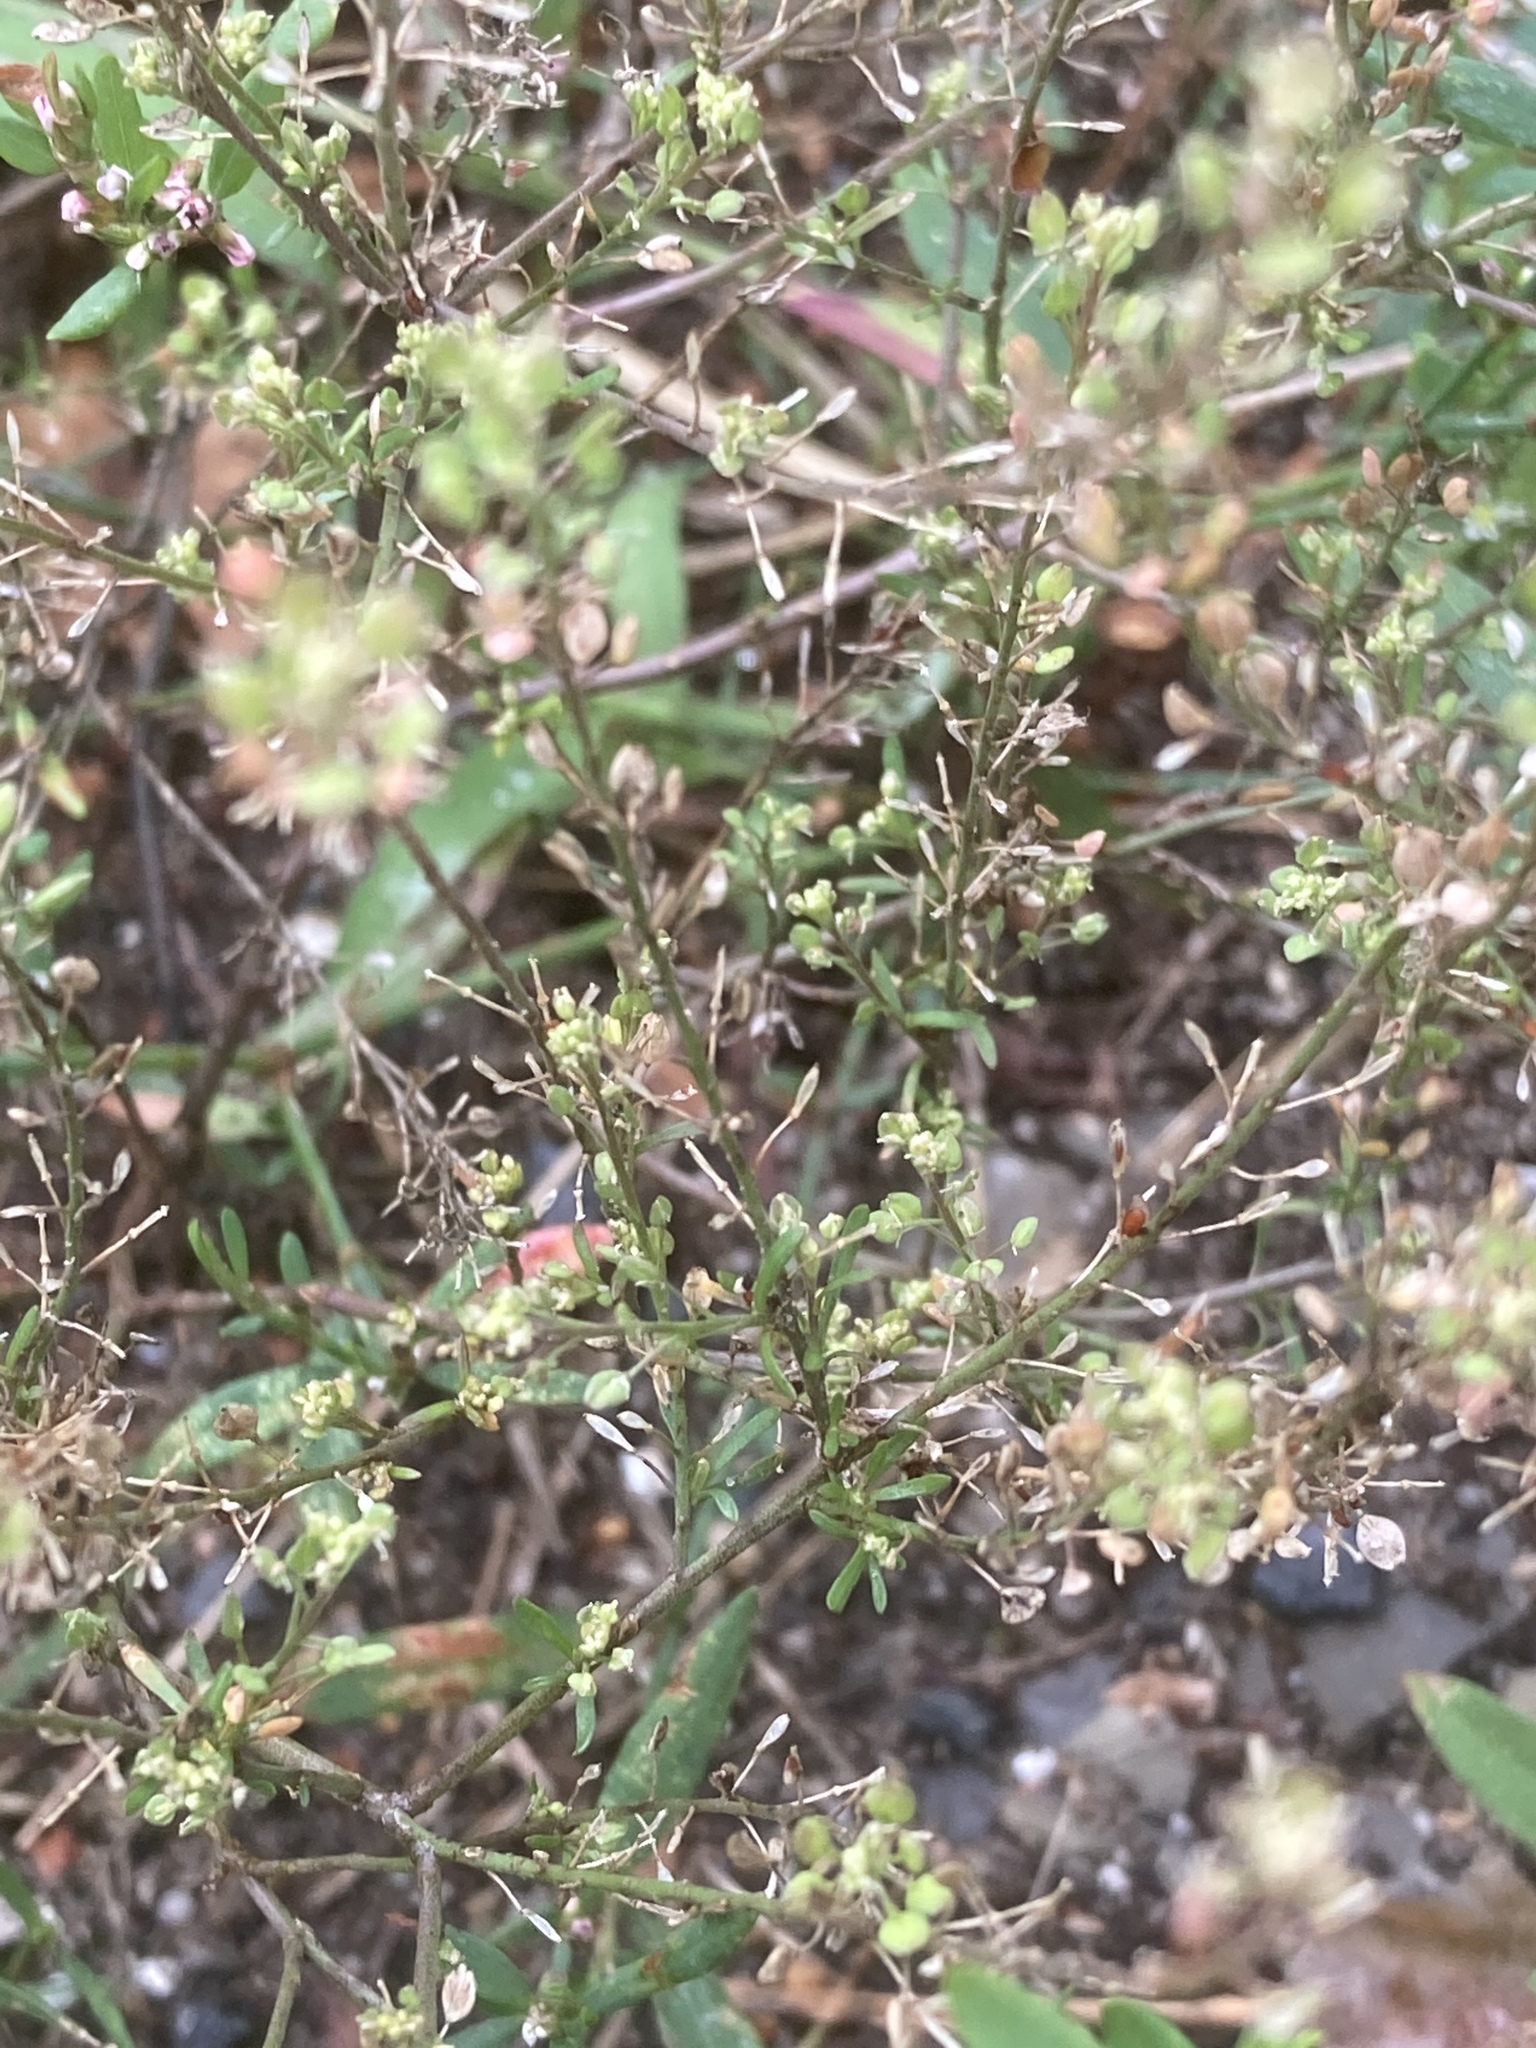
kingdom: Plantae
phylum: Tracheophyta
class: Magnoliopsida
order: Brassicales
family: Brassicaceae
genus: Lepidium
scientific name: Lepidium ruderale
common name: Narrow-leaved pepperwort
